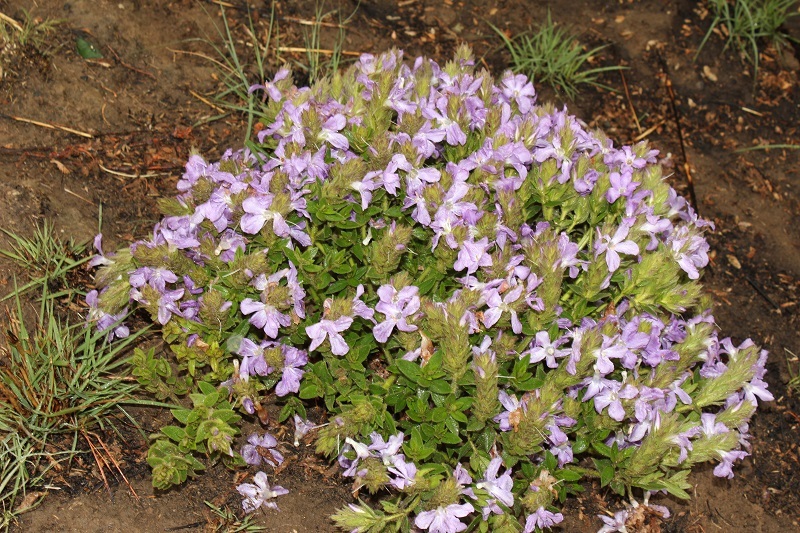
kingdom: Plantae
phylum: Tracheophyta
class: Magnoliopsida
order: Lamiales
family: Acanthaceae
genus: Barleria
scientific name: Barleria monticola
